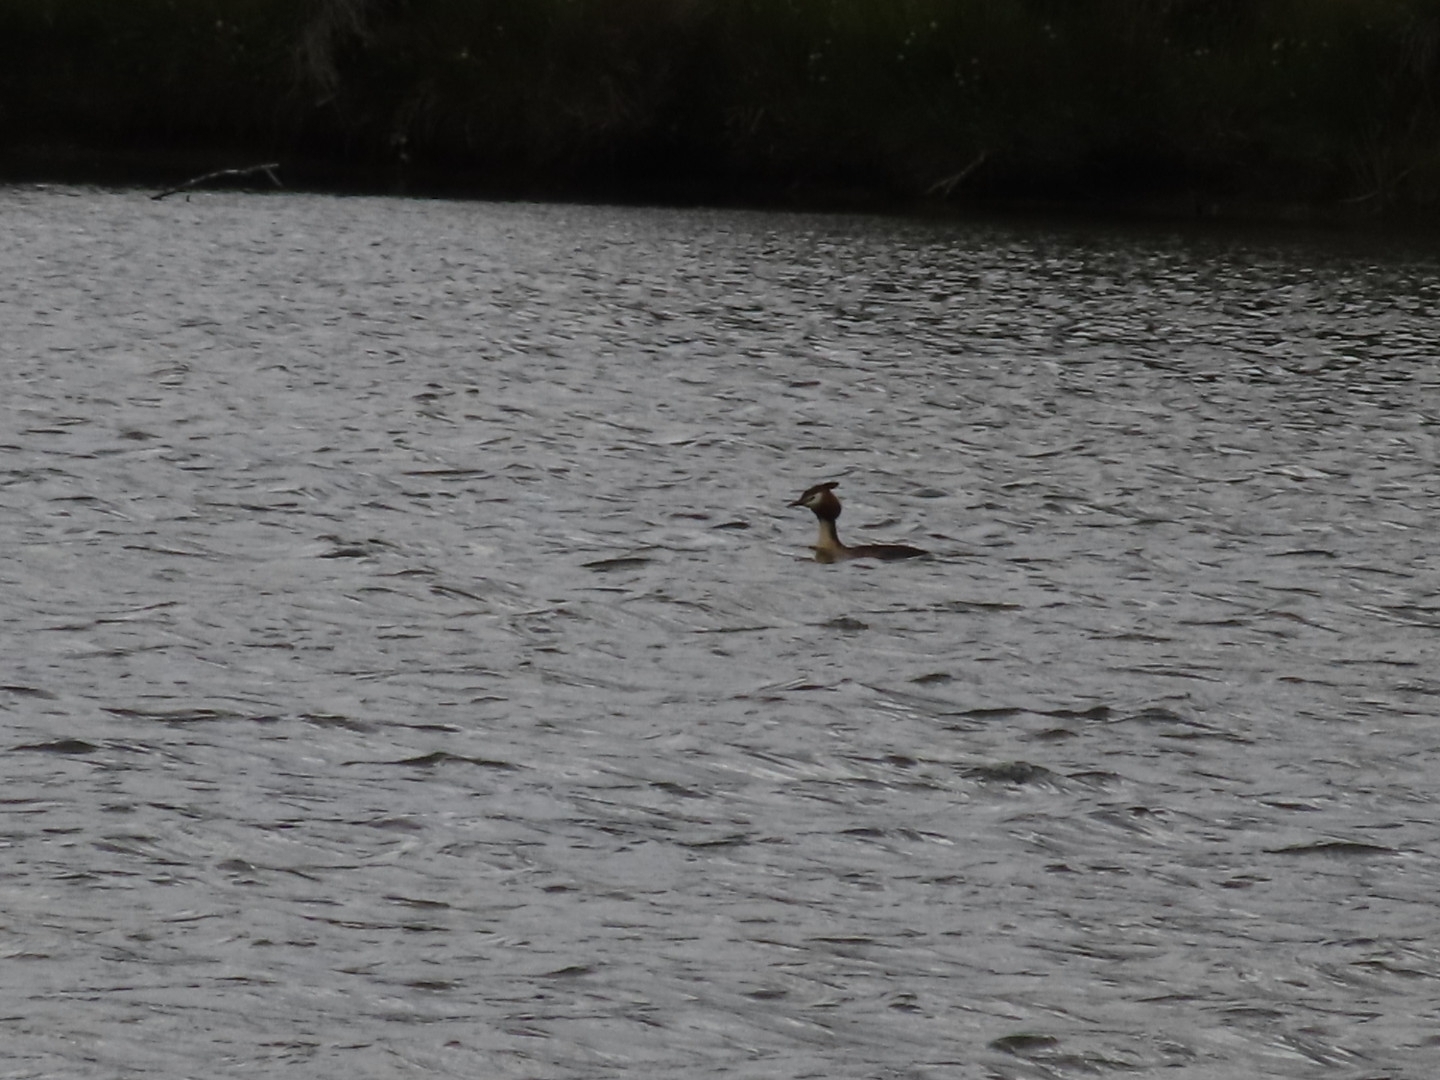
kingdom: Animalia
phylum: Chordata
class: Aves
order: Podicipediformes
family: Podicipedidae
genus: Podiceps
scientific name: Podiceps cristatus
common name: Great crested grebe
